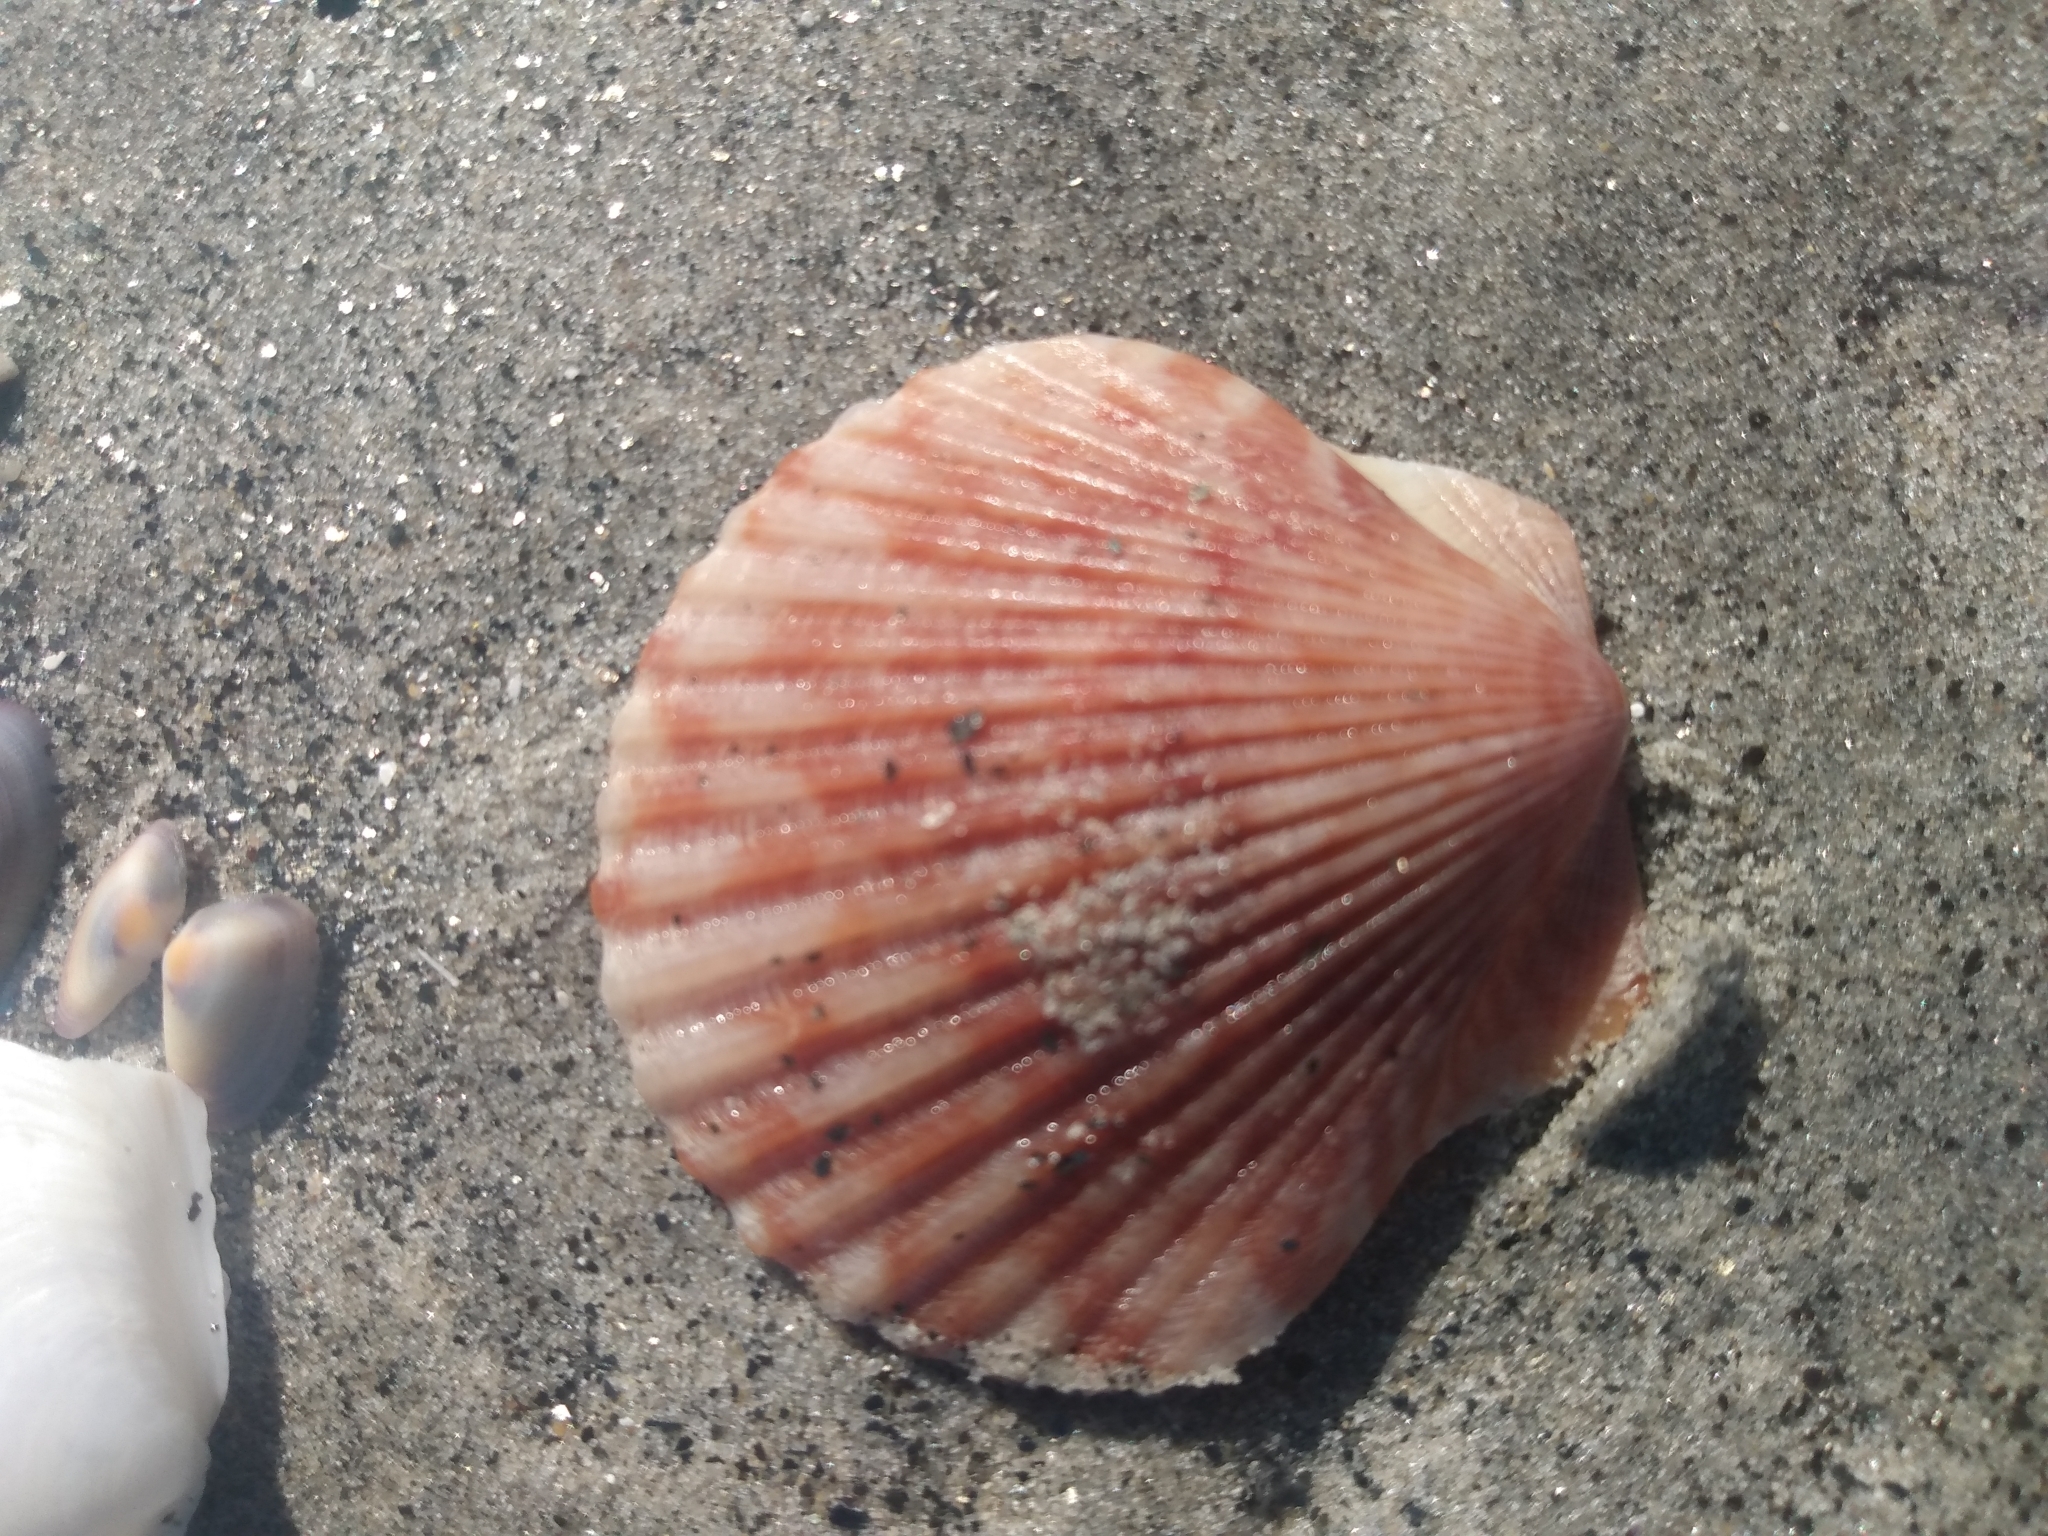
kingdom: Animalia
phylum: Mollusca
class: Bivalvia
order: Pectinida
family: Pectinidae
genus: Argopecten
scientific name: Argopecten ventricosus
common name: Catarina scallop
